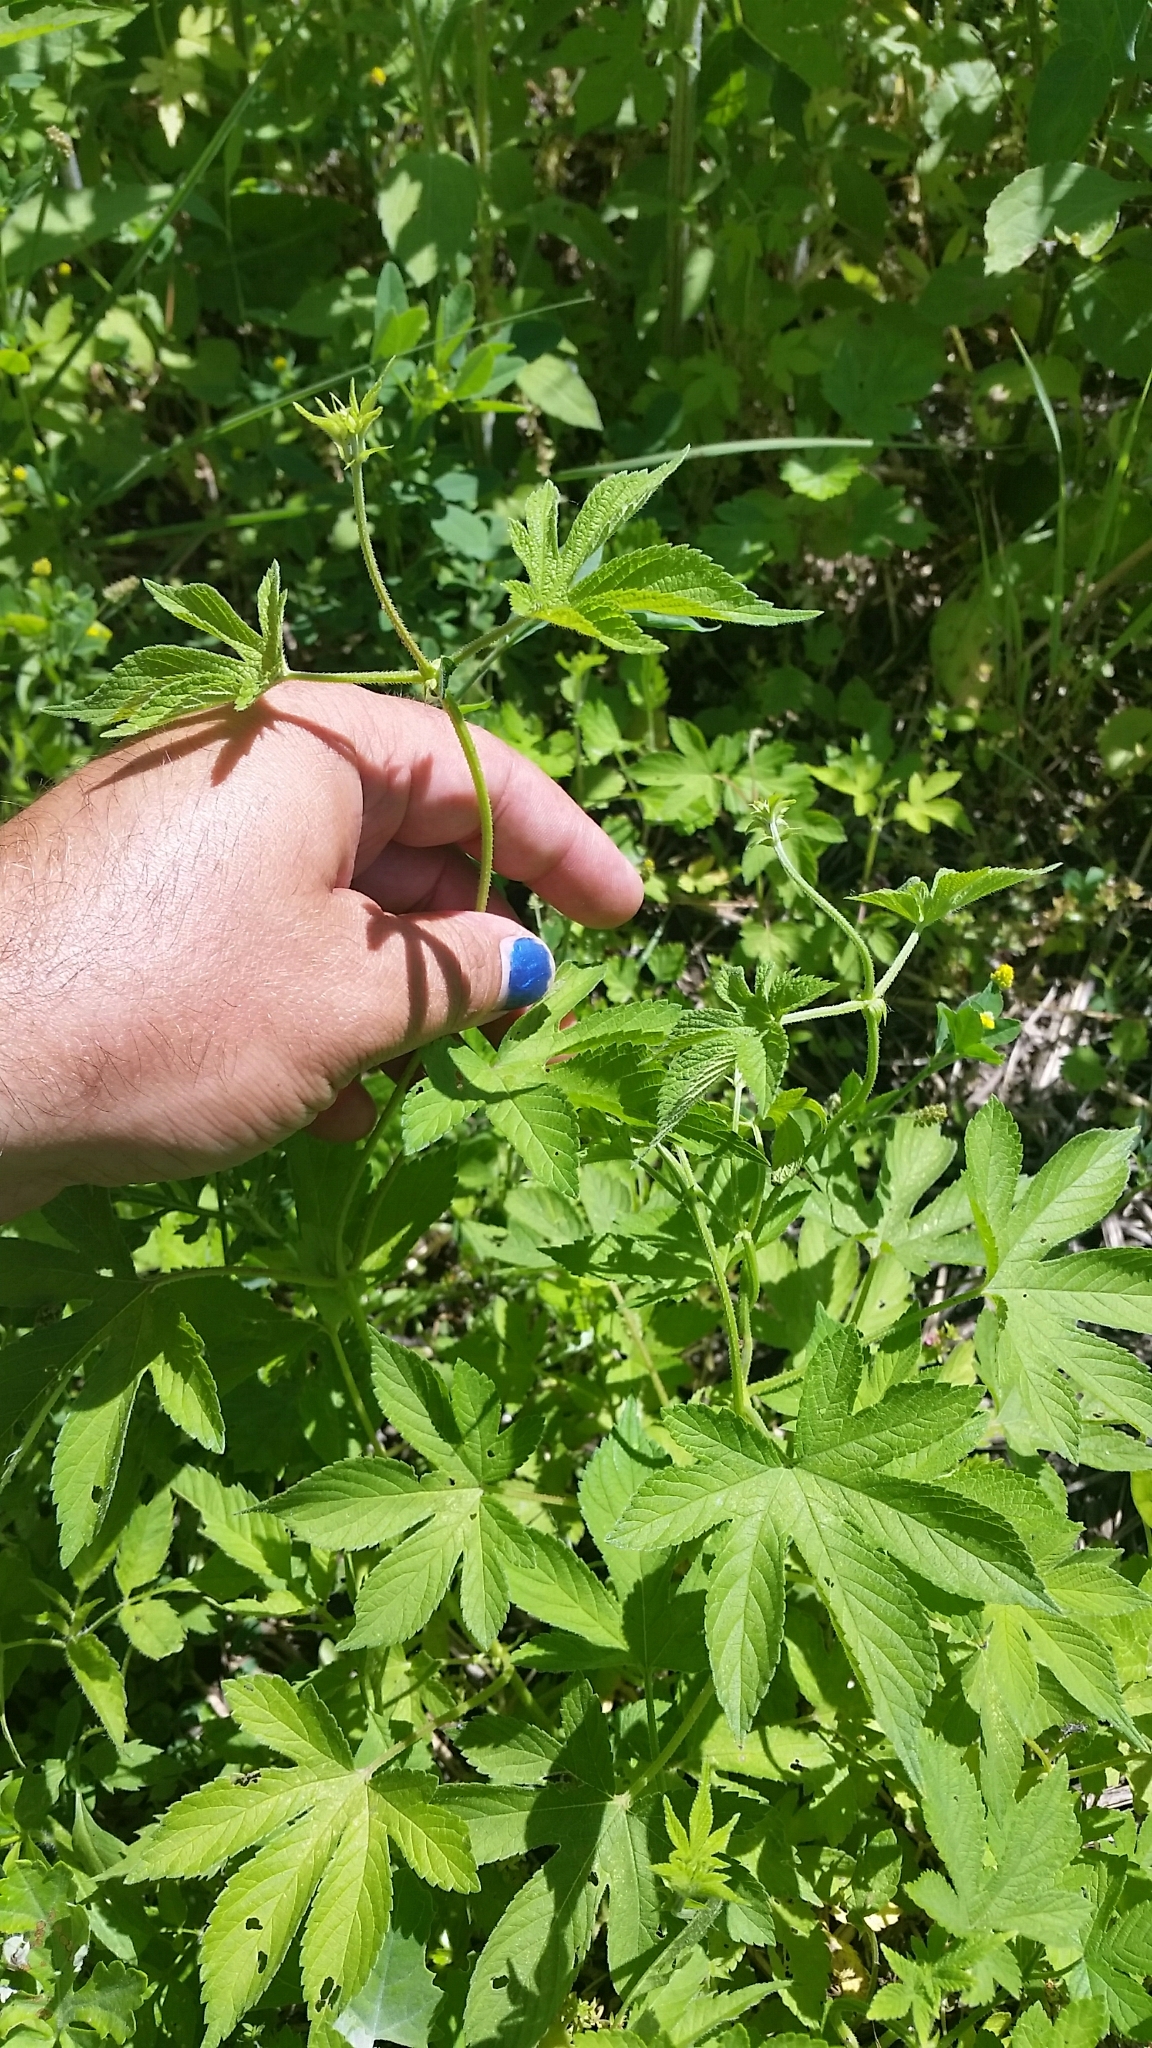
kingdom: Plantae
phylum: Tracheophyta
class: Magnoliopsida
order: Rosales
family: Cannabaceae
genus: Humulus
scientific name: Humulus scandens
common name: Japanese hop
